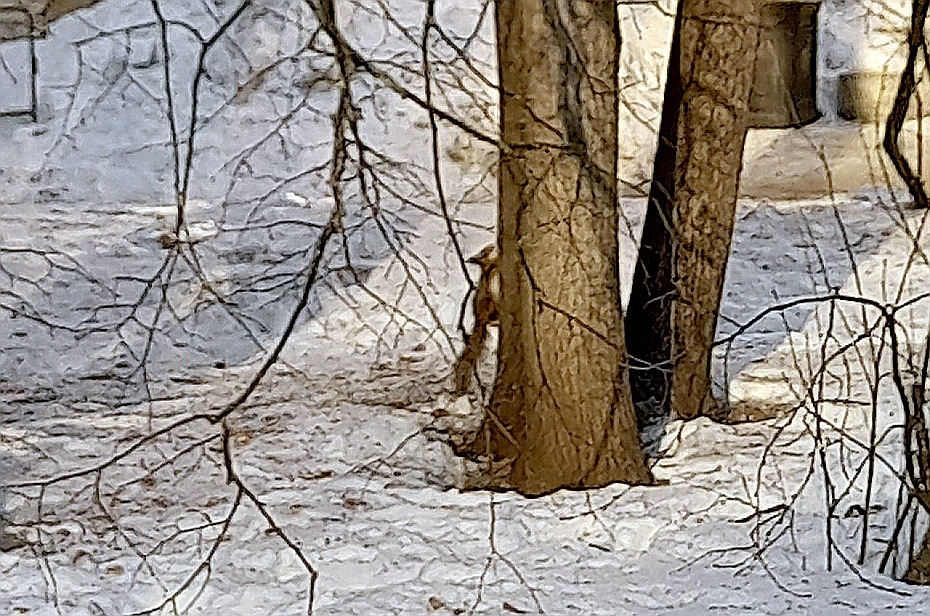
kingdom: Animalia
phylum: Chordata
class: Mammalia
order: Rodentia
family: Sciuridae
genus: Sciurus
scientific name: Sciurus vulgaris
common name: Eurasian red squirrel
